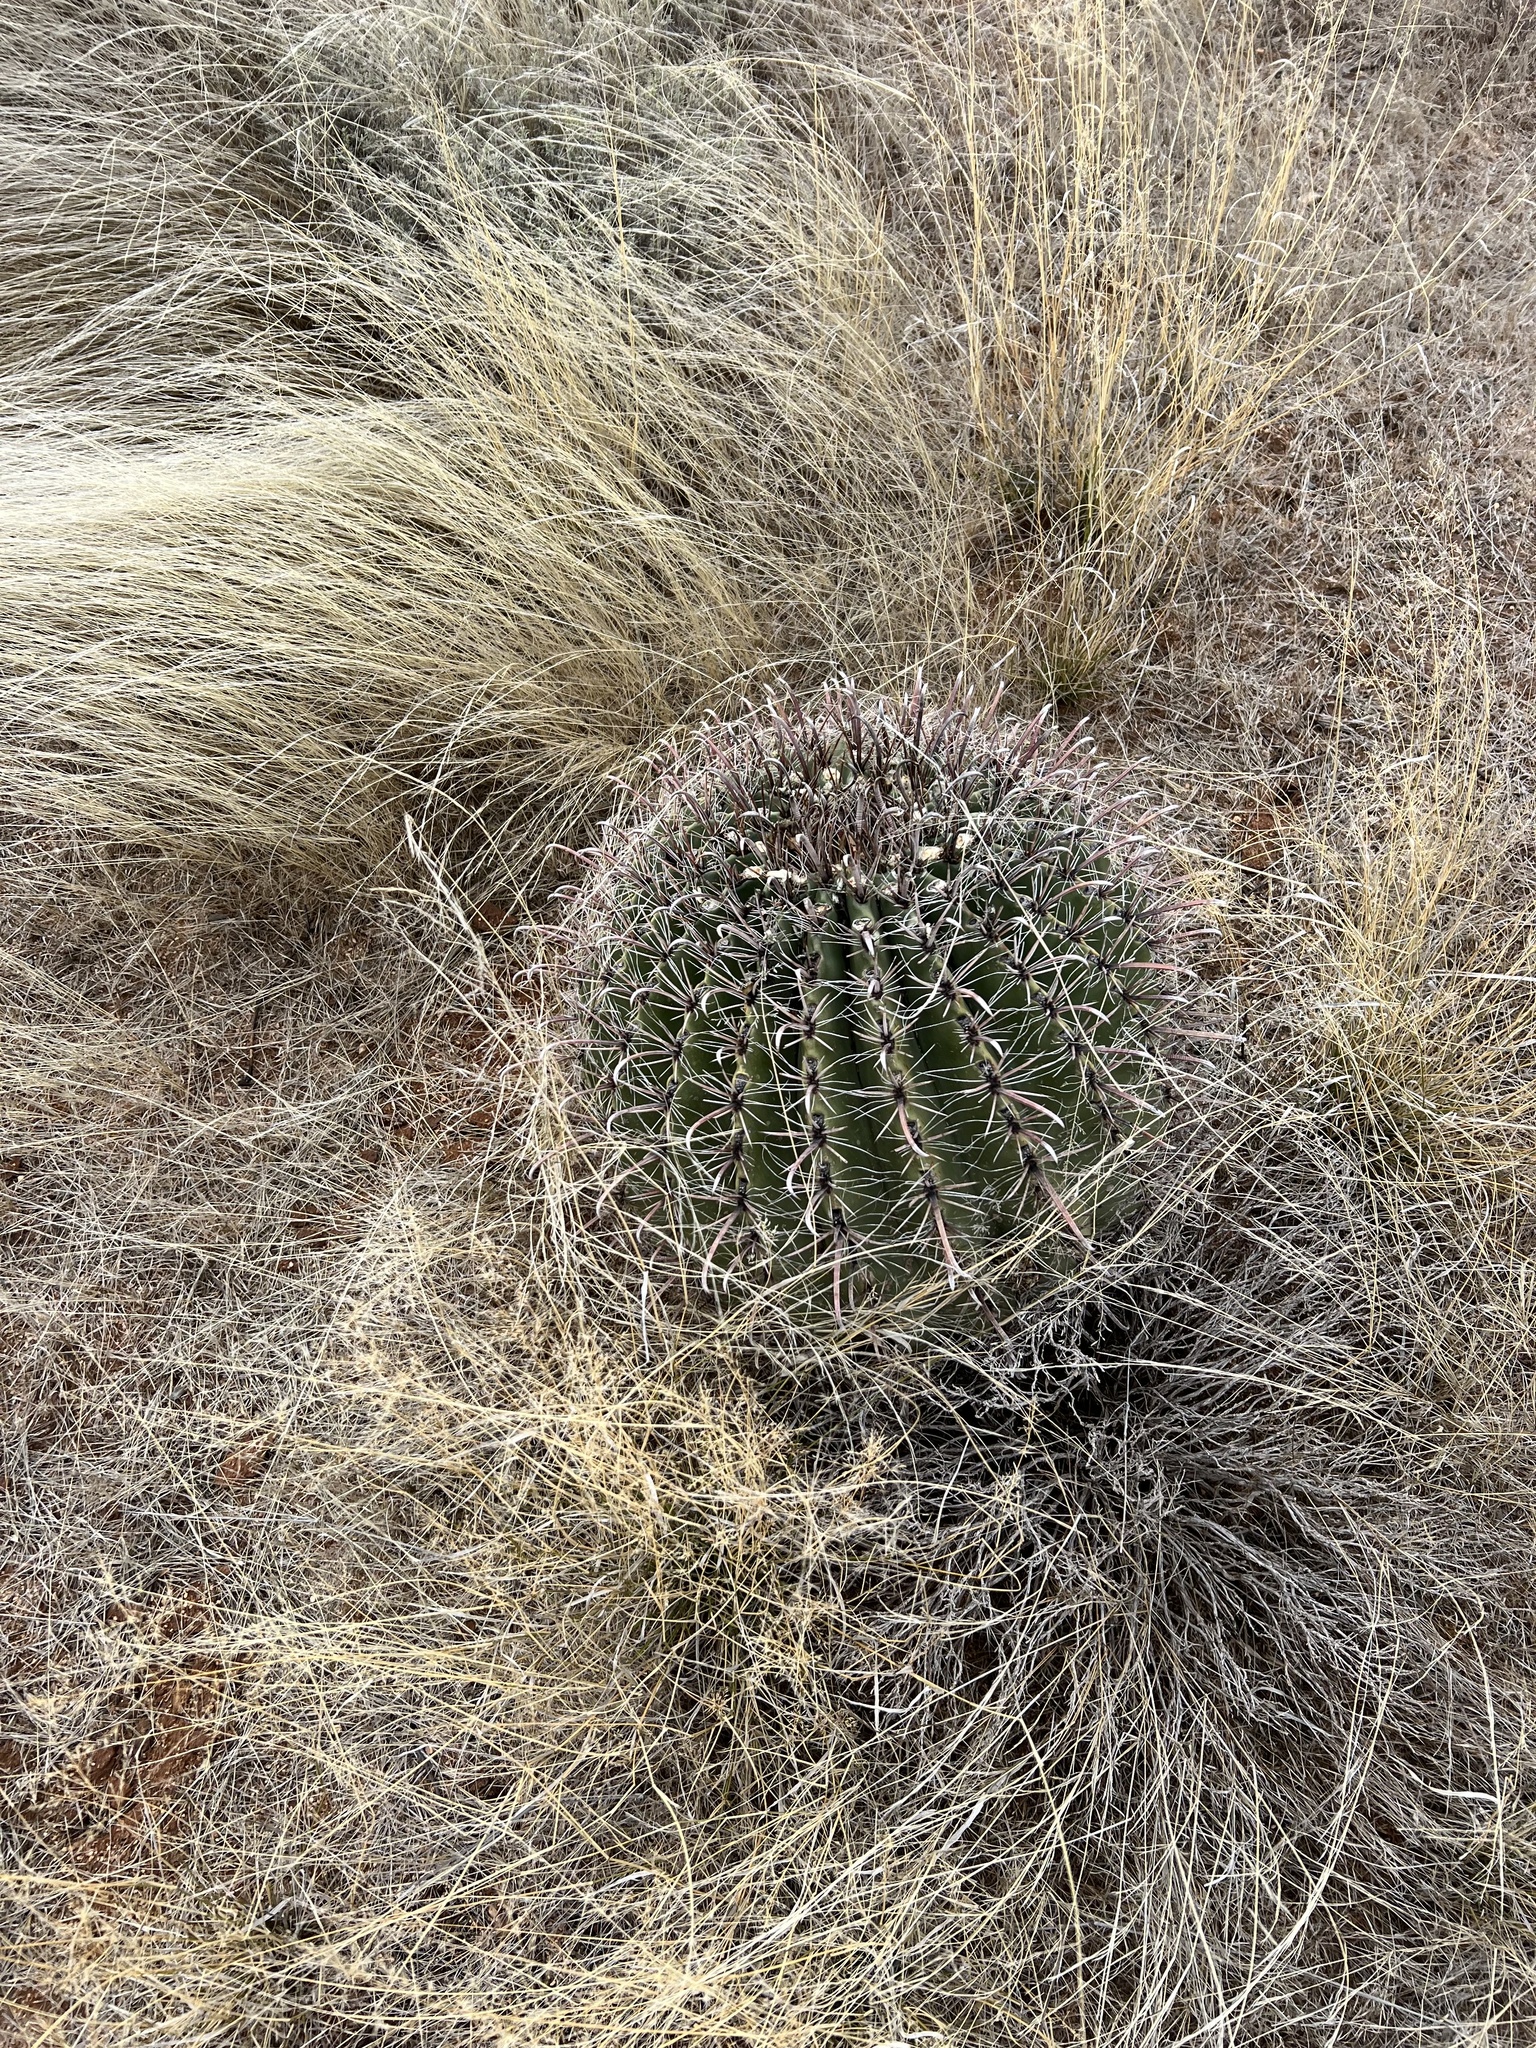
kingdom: Plantae
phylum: Tracheophyta
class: Magnoliopsida
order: Caryophyllales
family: Cactaceae
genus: Ferocactus
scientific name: Ferocactus wislizeni
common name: Candy barrel cactus
